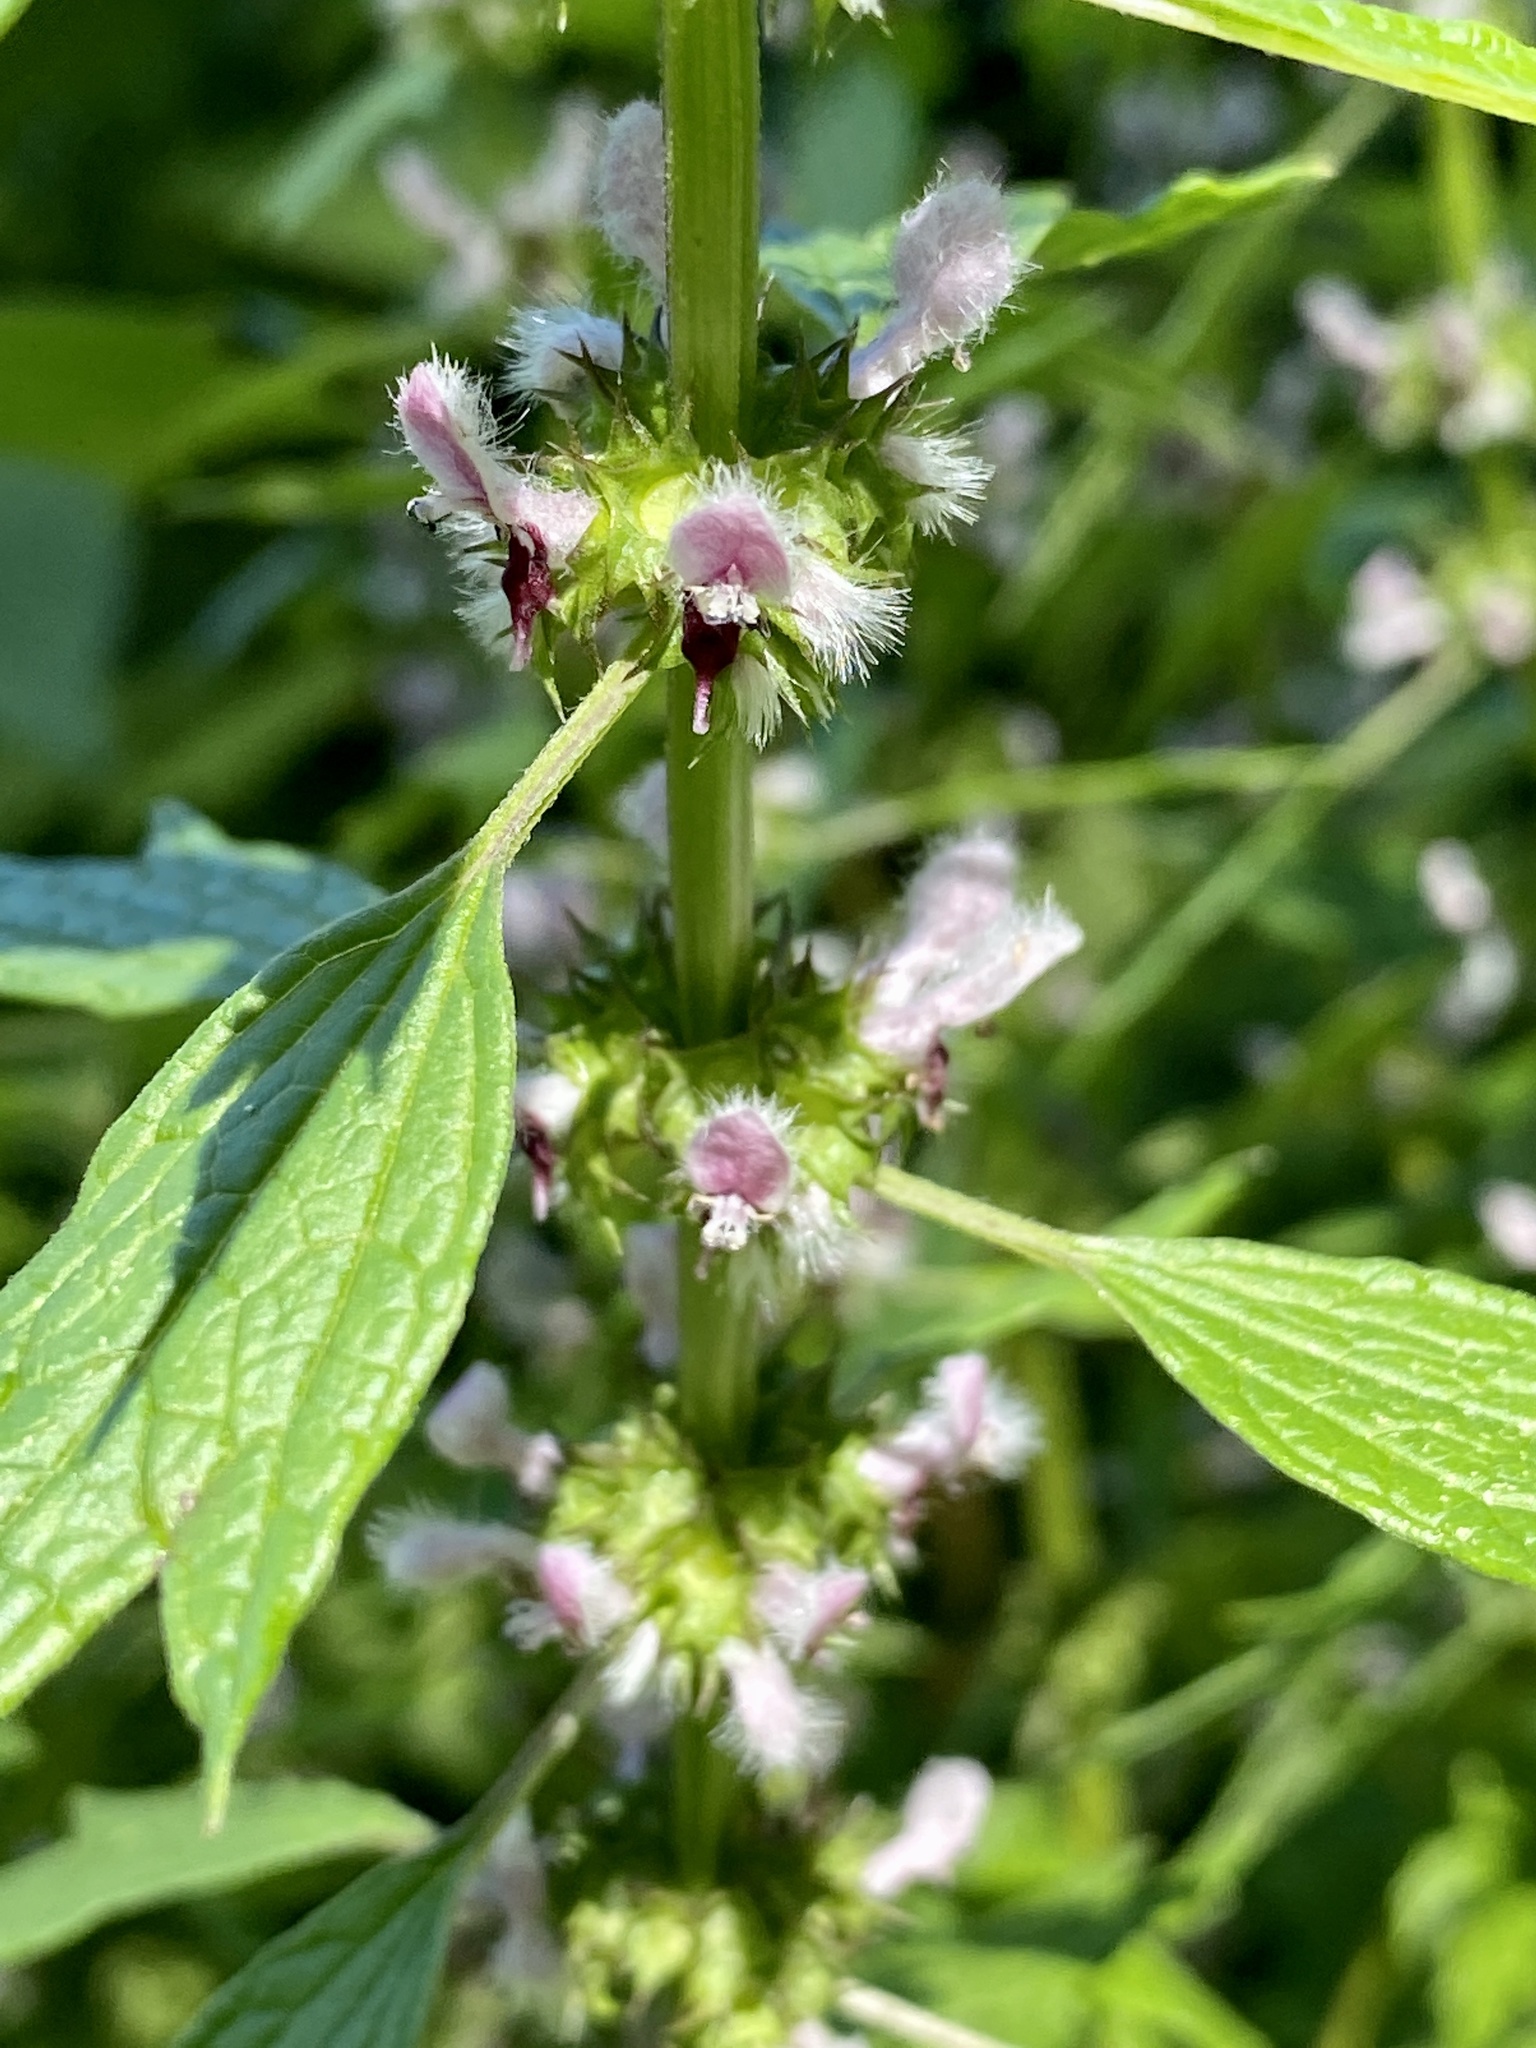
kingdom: Plantae
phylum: Tracheophyta
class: Magnoliopsida
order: Lamiales
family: Lamiaceae
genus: Leonurus
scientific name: Leonurus cardiaca
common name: Motherwort
